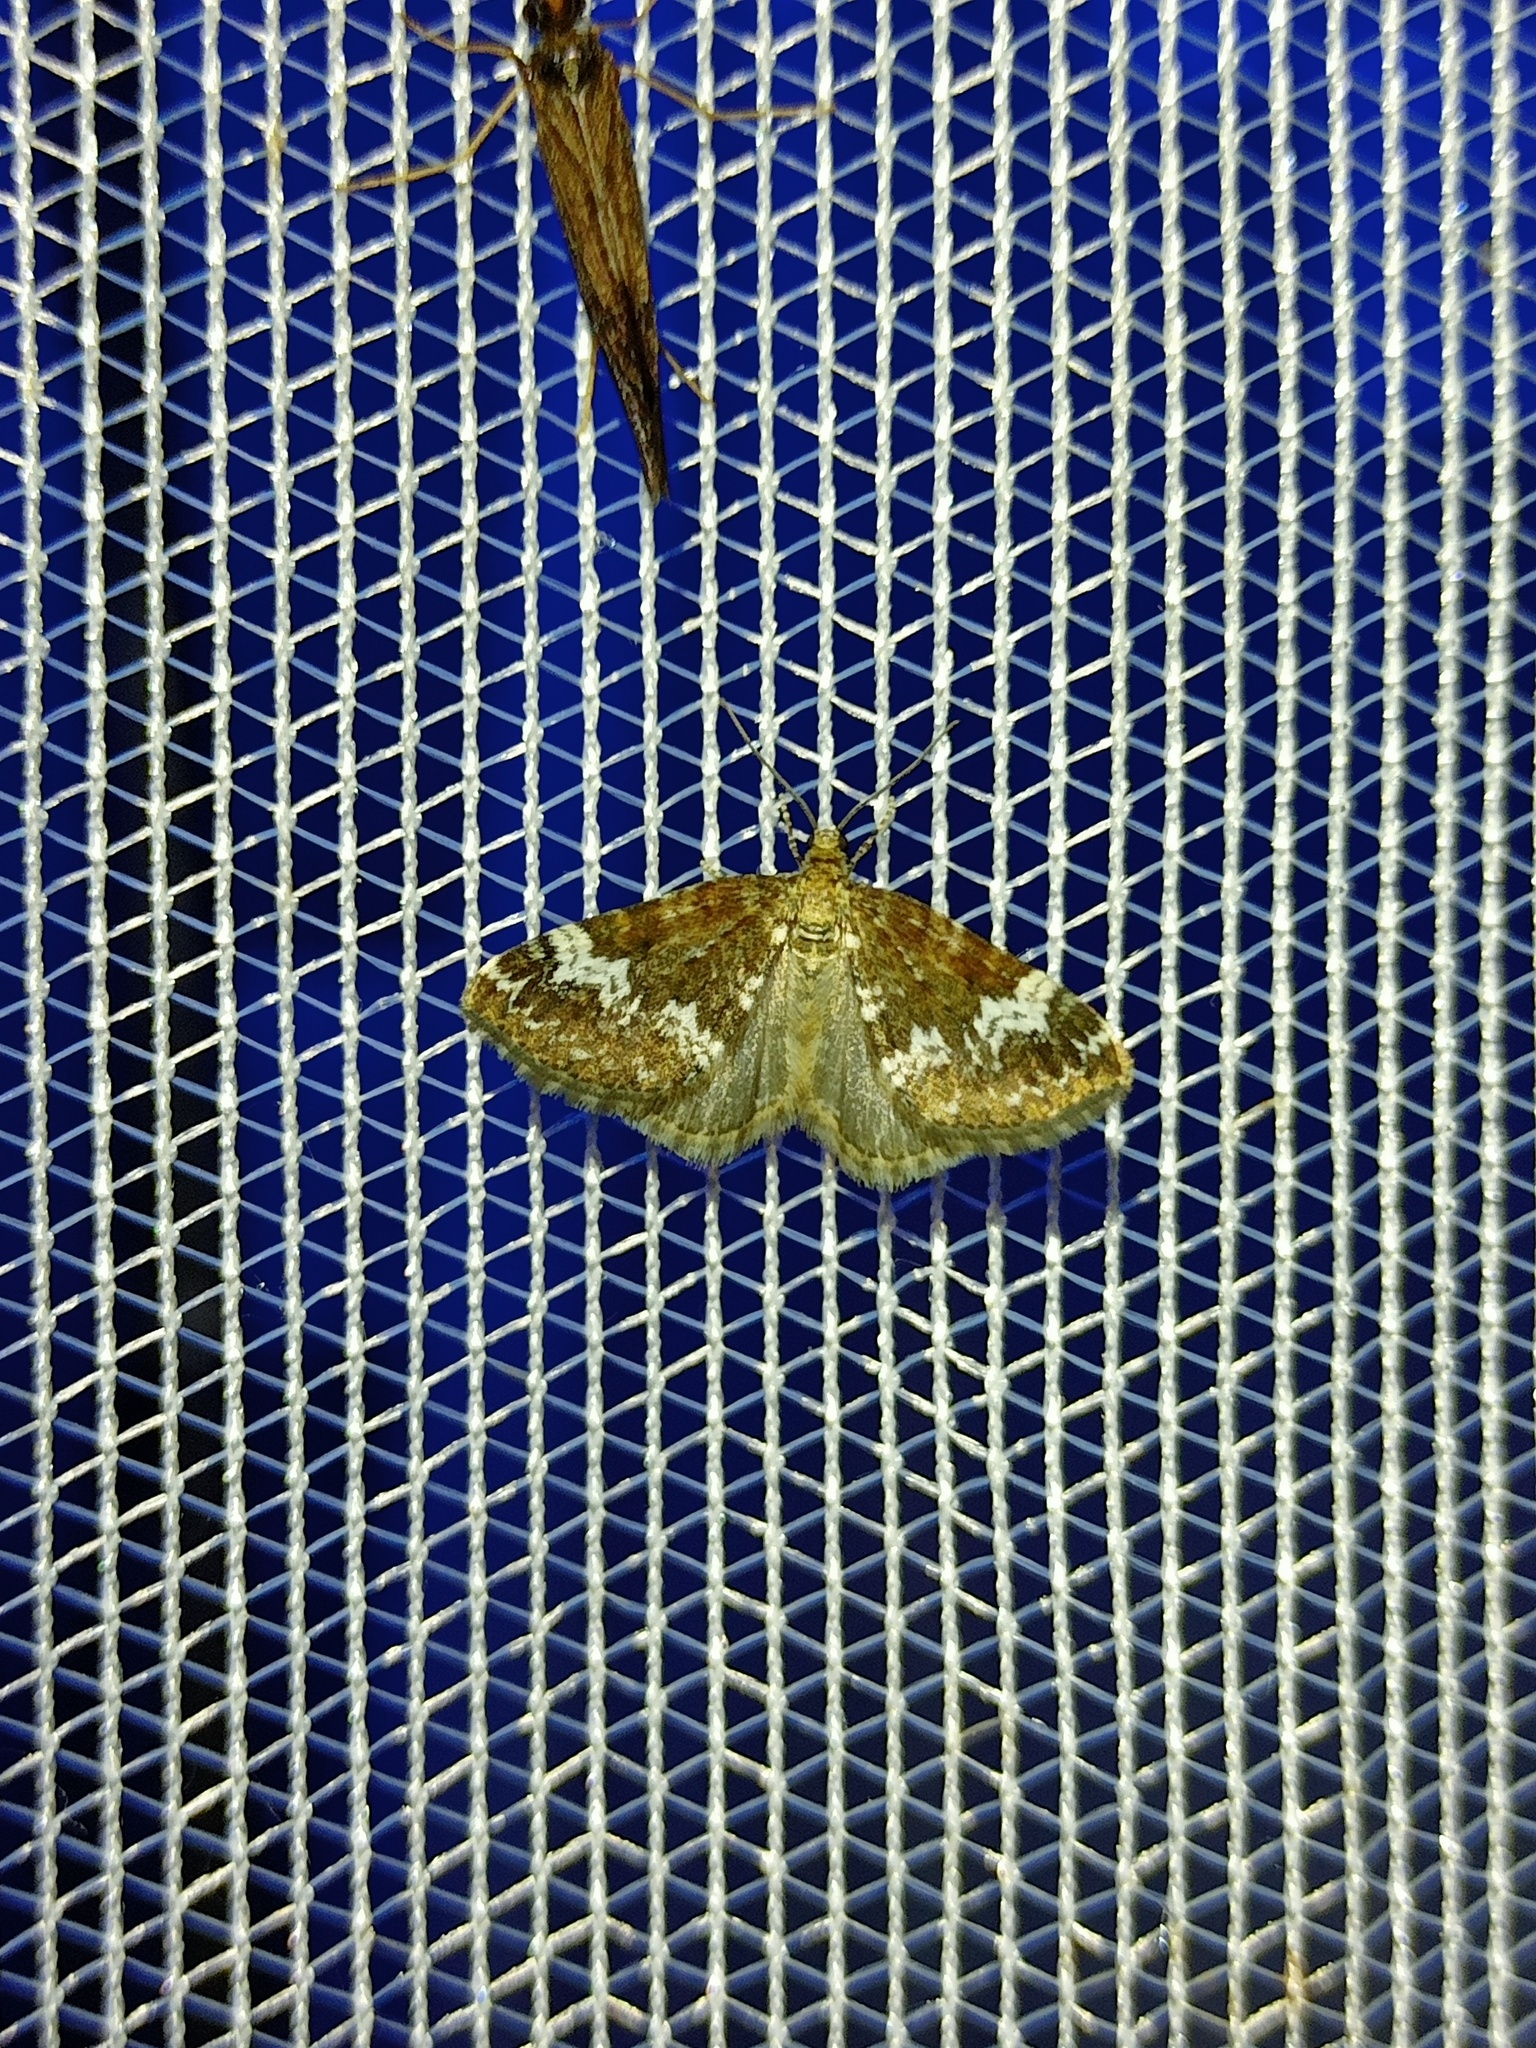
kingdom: Animalia
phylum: Arthropoda
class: Insecta
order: Lepidoptera
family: Geometridae
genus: Perizoma
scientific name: Perizoma alchemillata
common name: Small rivulet
